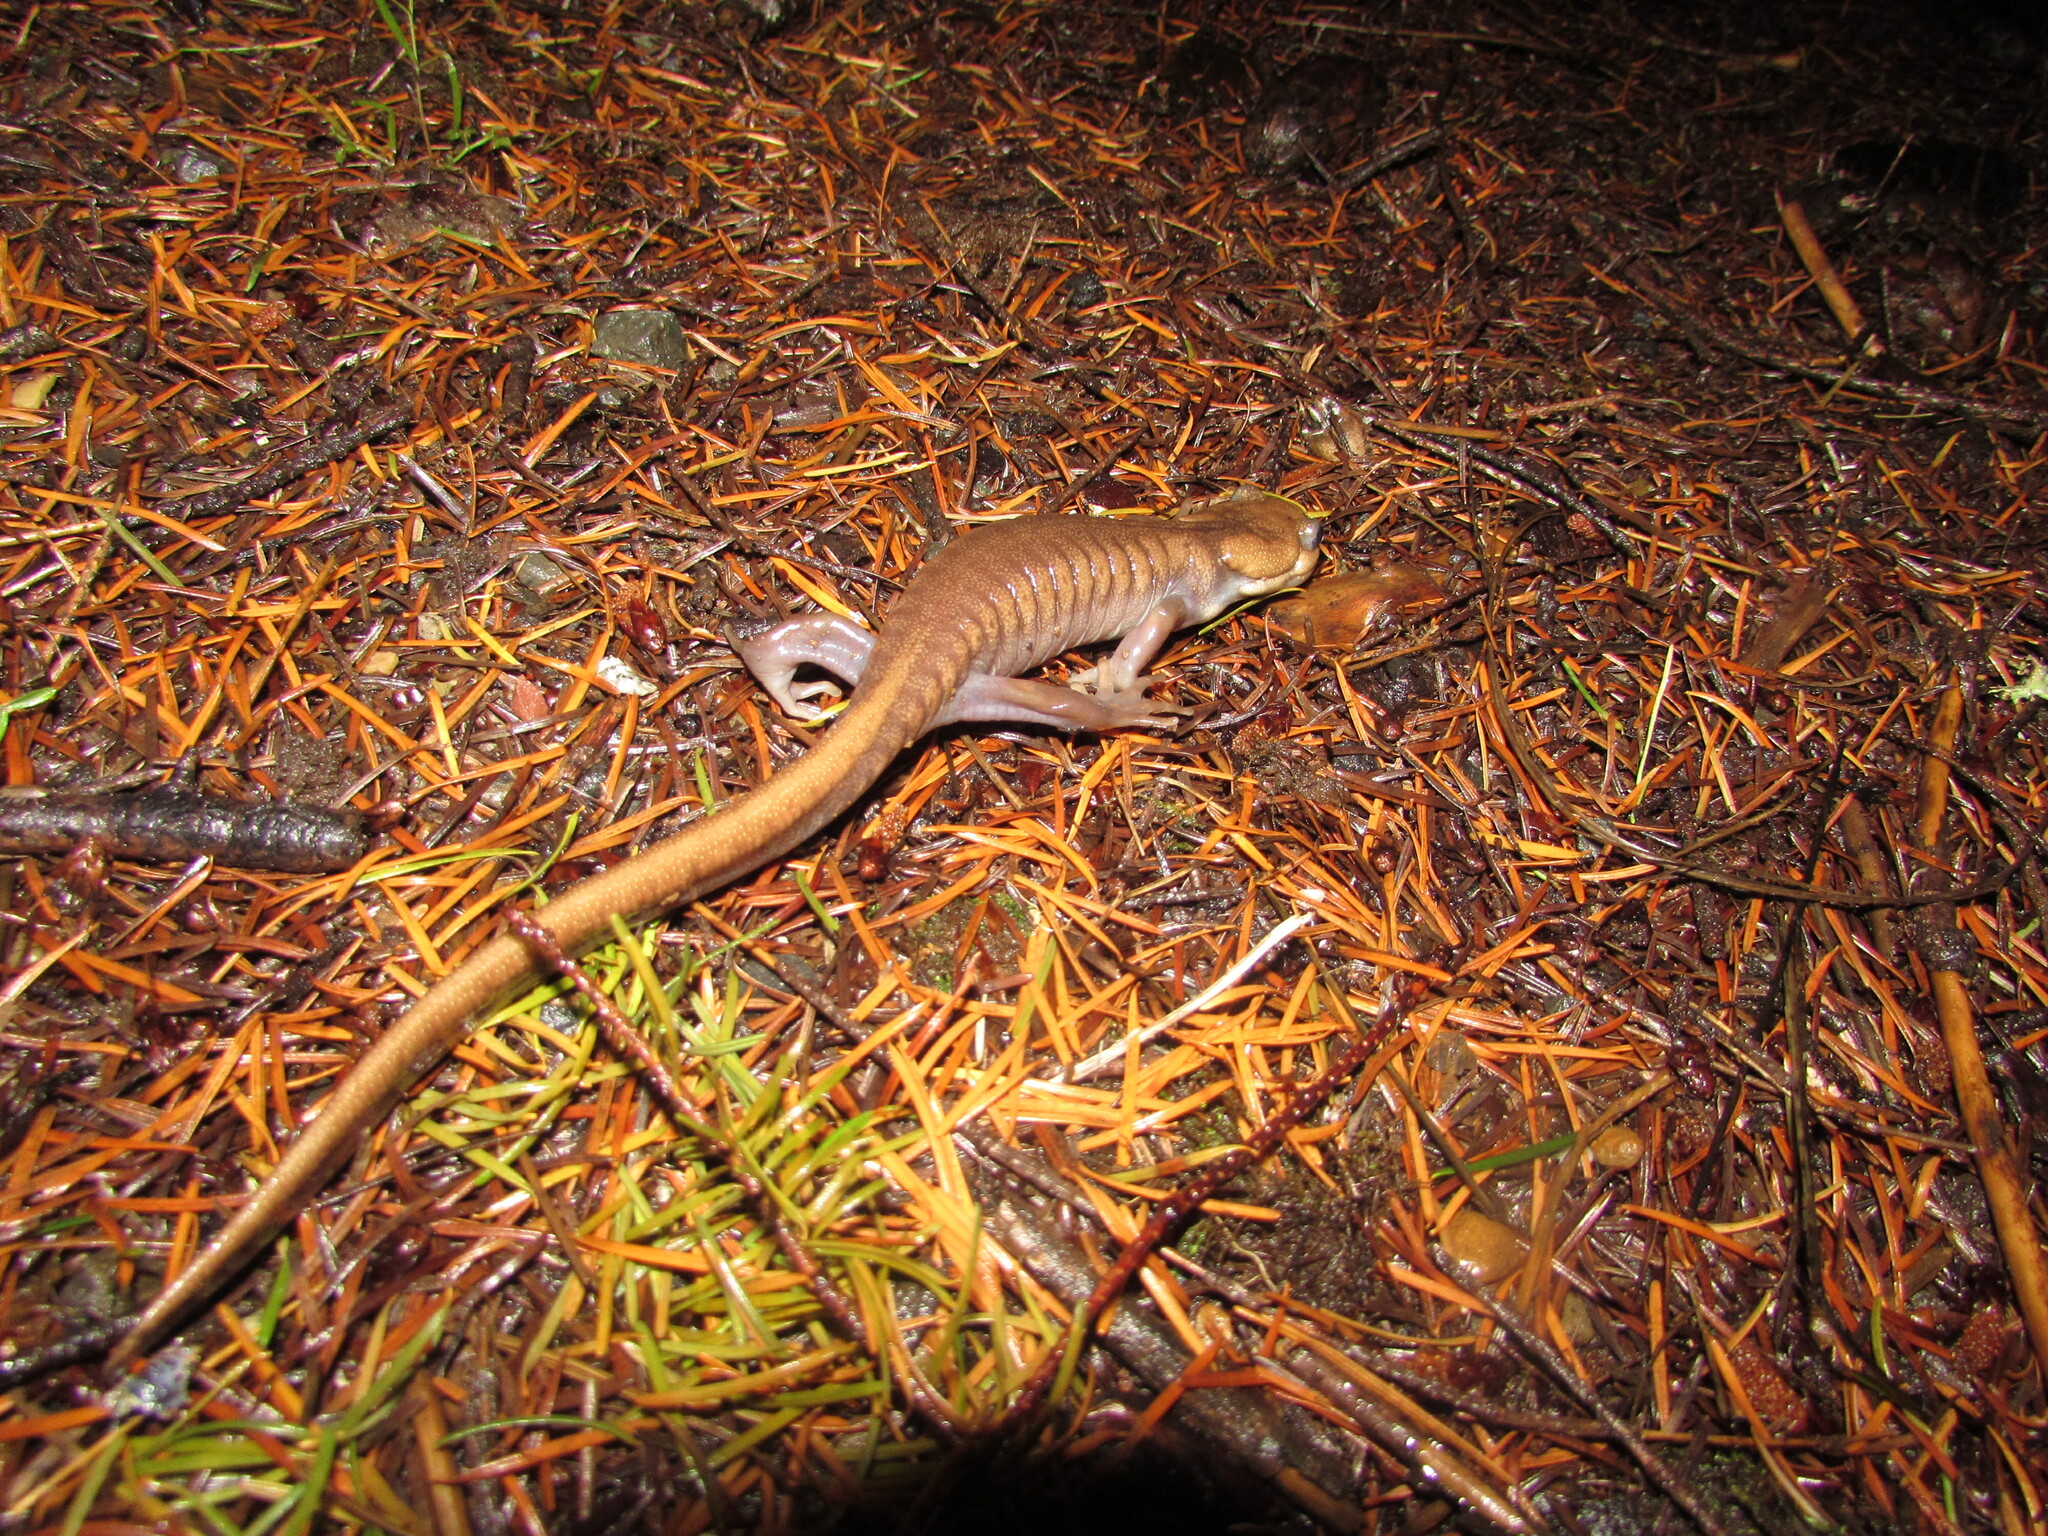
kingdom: Animalia
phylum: Chordata
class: Amphibia
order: Caudata
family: Ambystomatidae
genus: Ambystoma
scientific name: Ambystoma gracile
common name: Northwestern salamander
